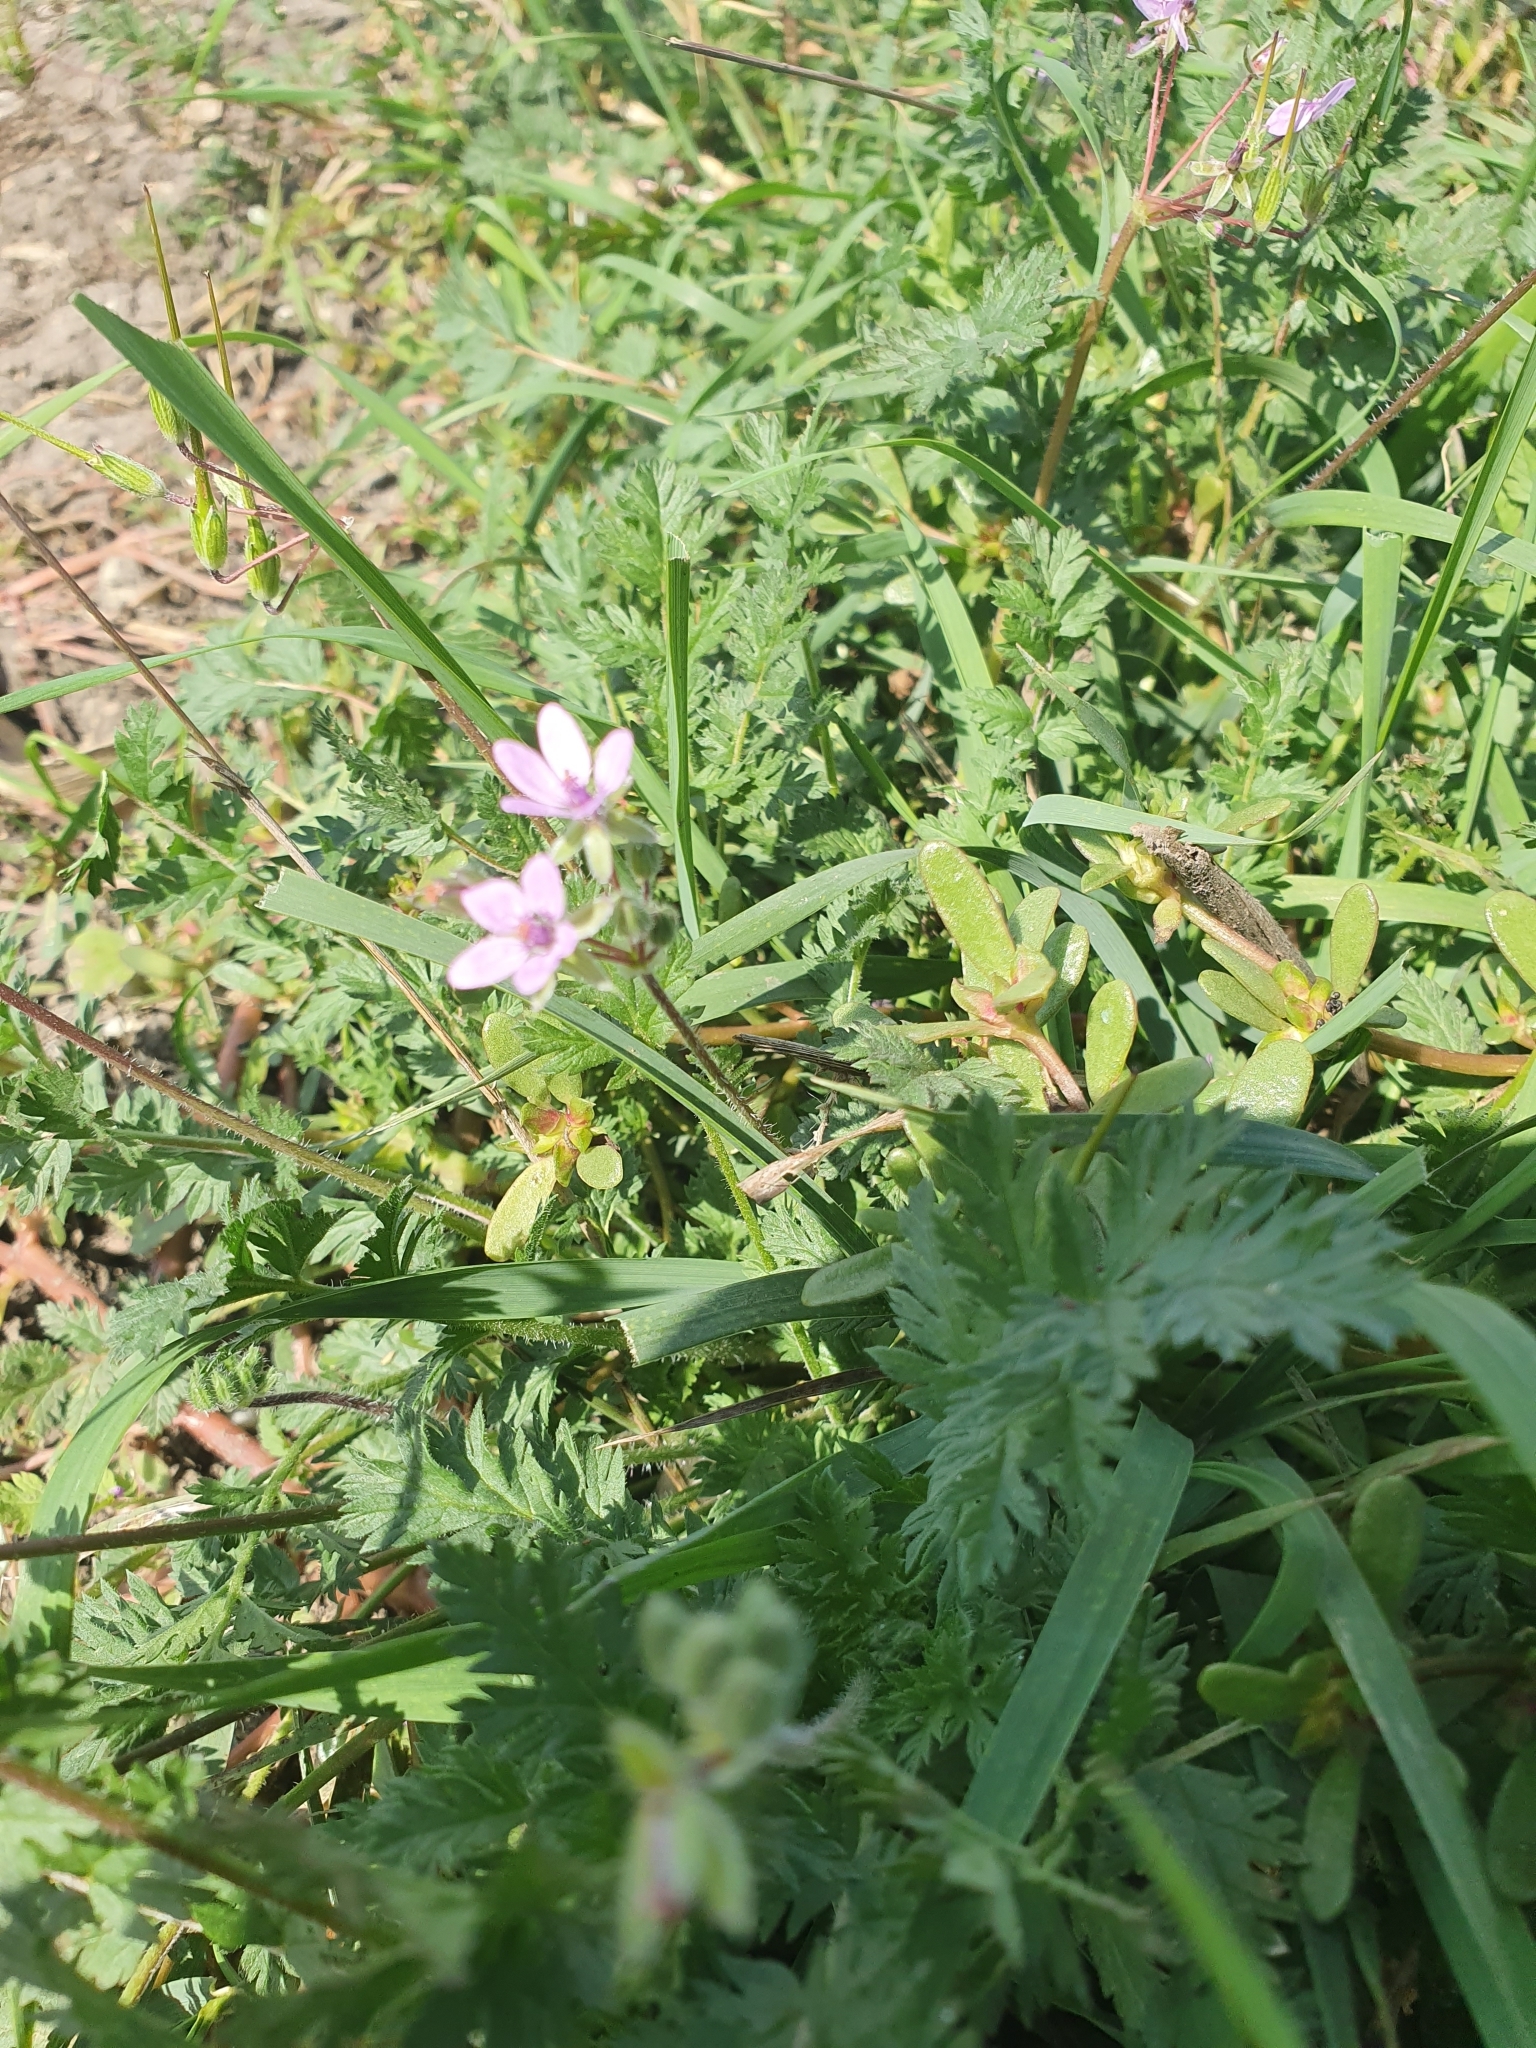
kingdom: Plantae
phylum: Tracheophyta
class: Magnoliopsida
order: Geraniales
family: Geraniaceae
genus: Erodium
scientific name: Erodium cicutarium
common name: Common stork's-bill
